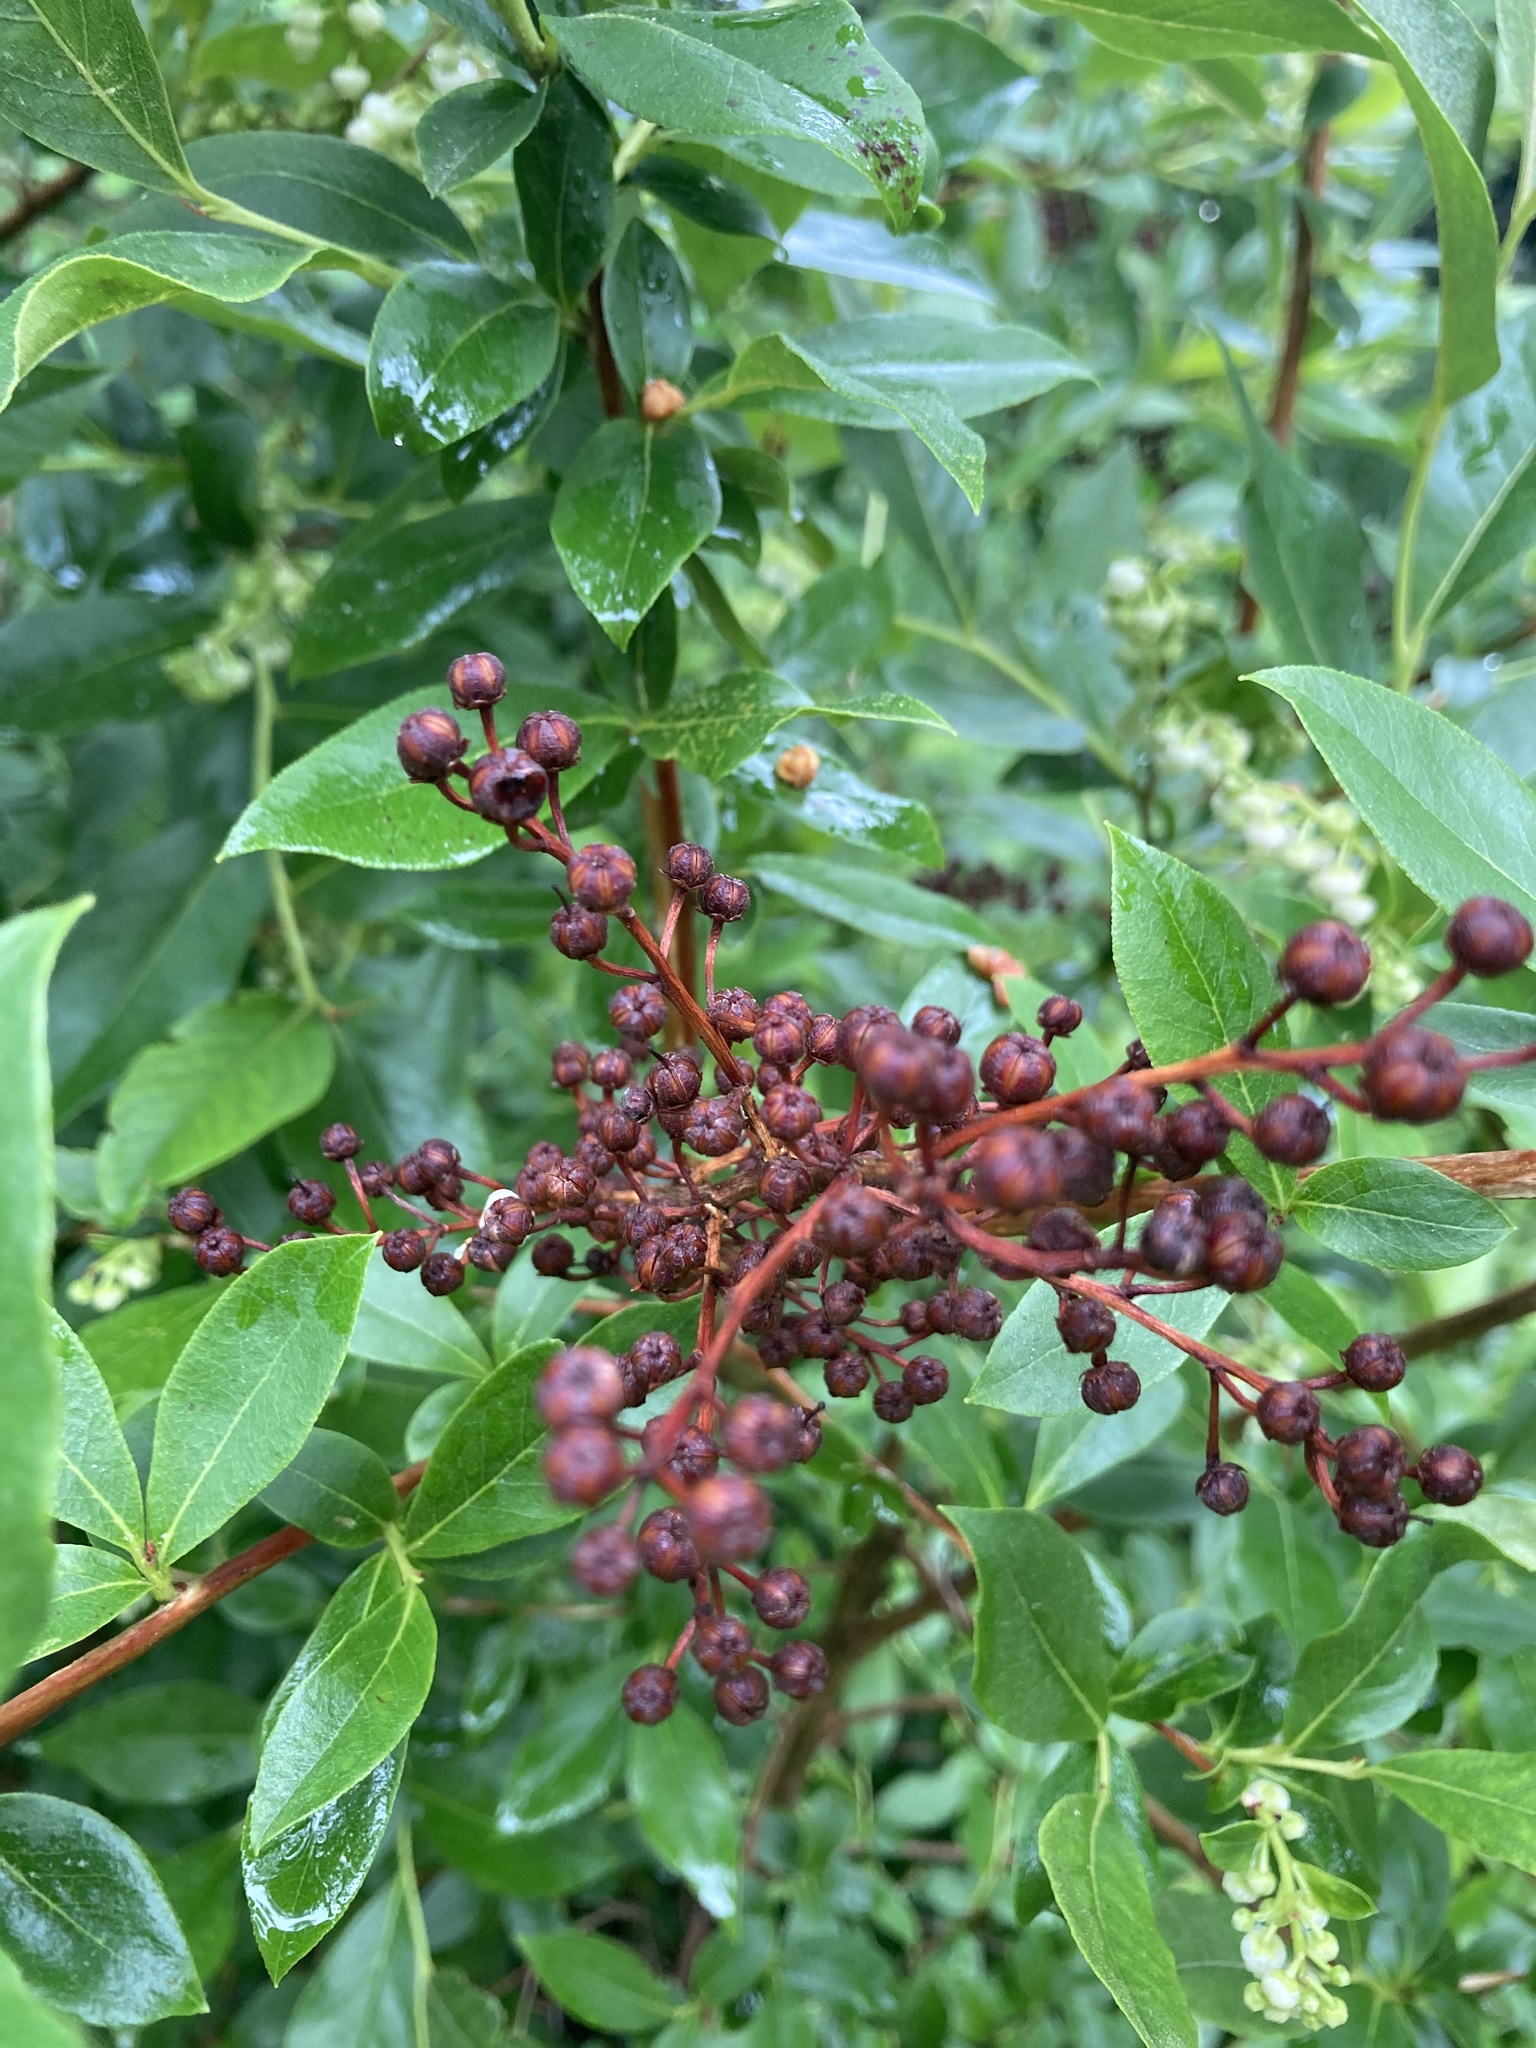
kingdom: Plantae
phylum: Tracheophyta
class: Magnoliopsida
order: Ericales
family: Ericaceae
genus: Lyonia
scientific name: Lyonia ligustrina
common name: Maleberry
